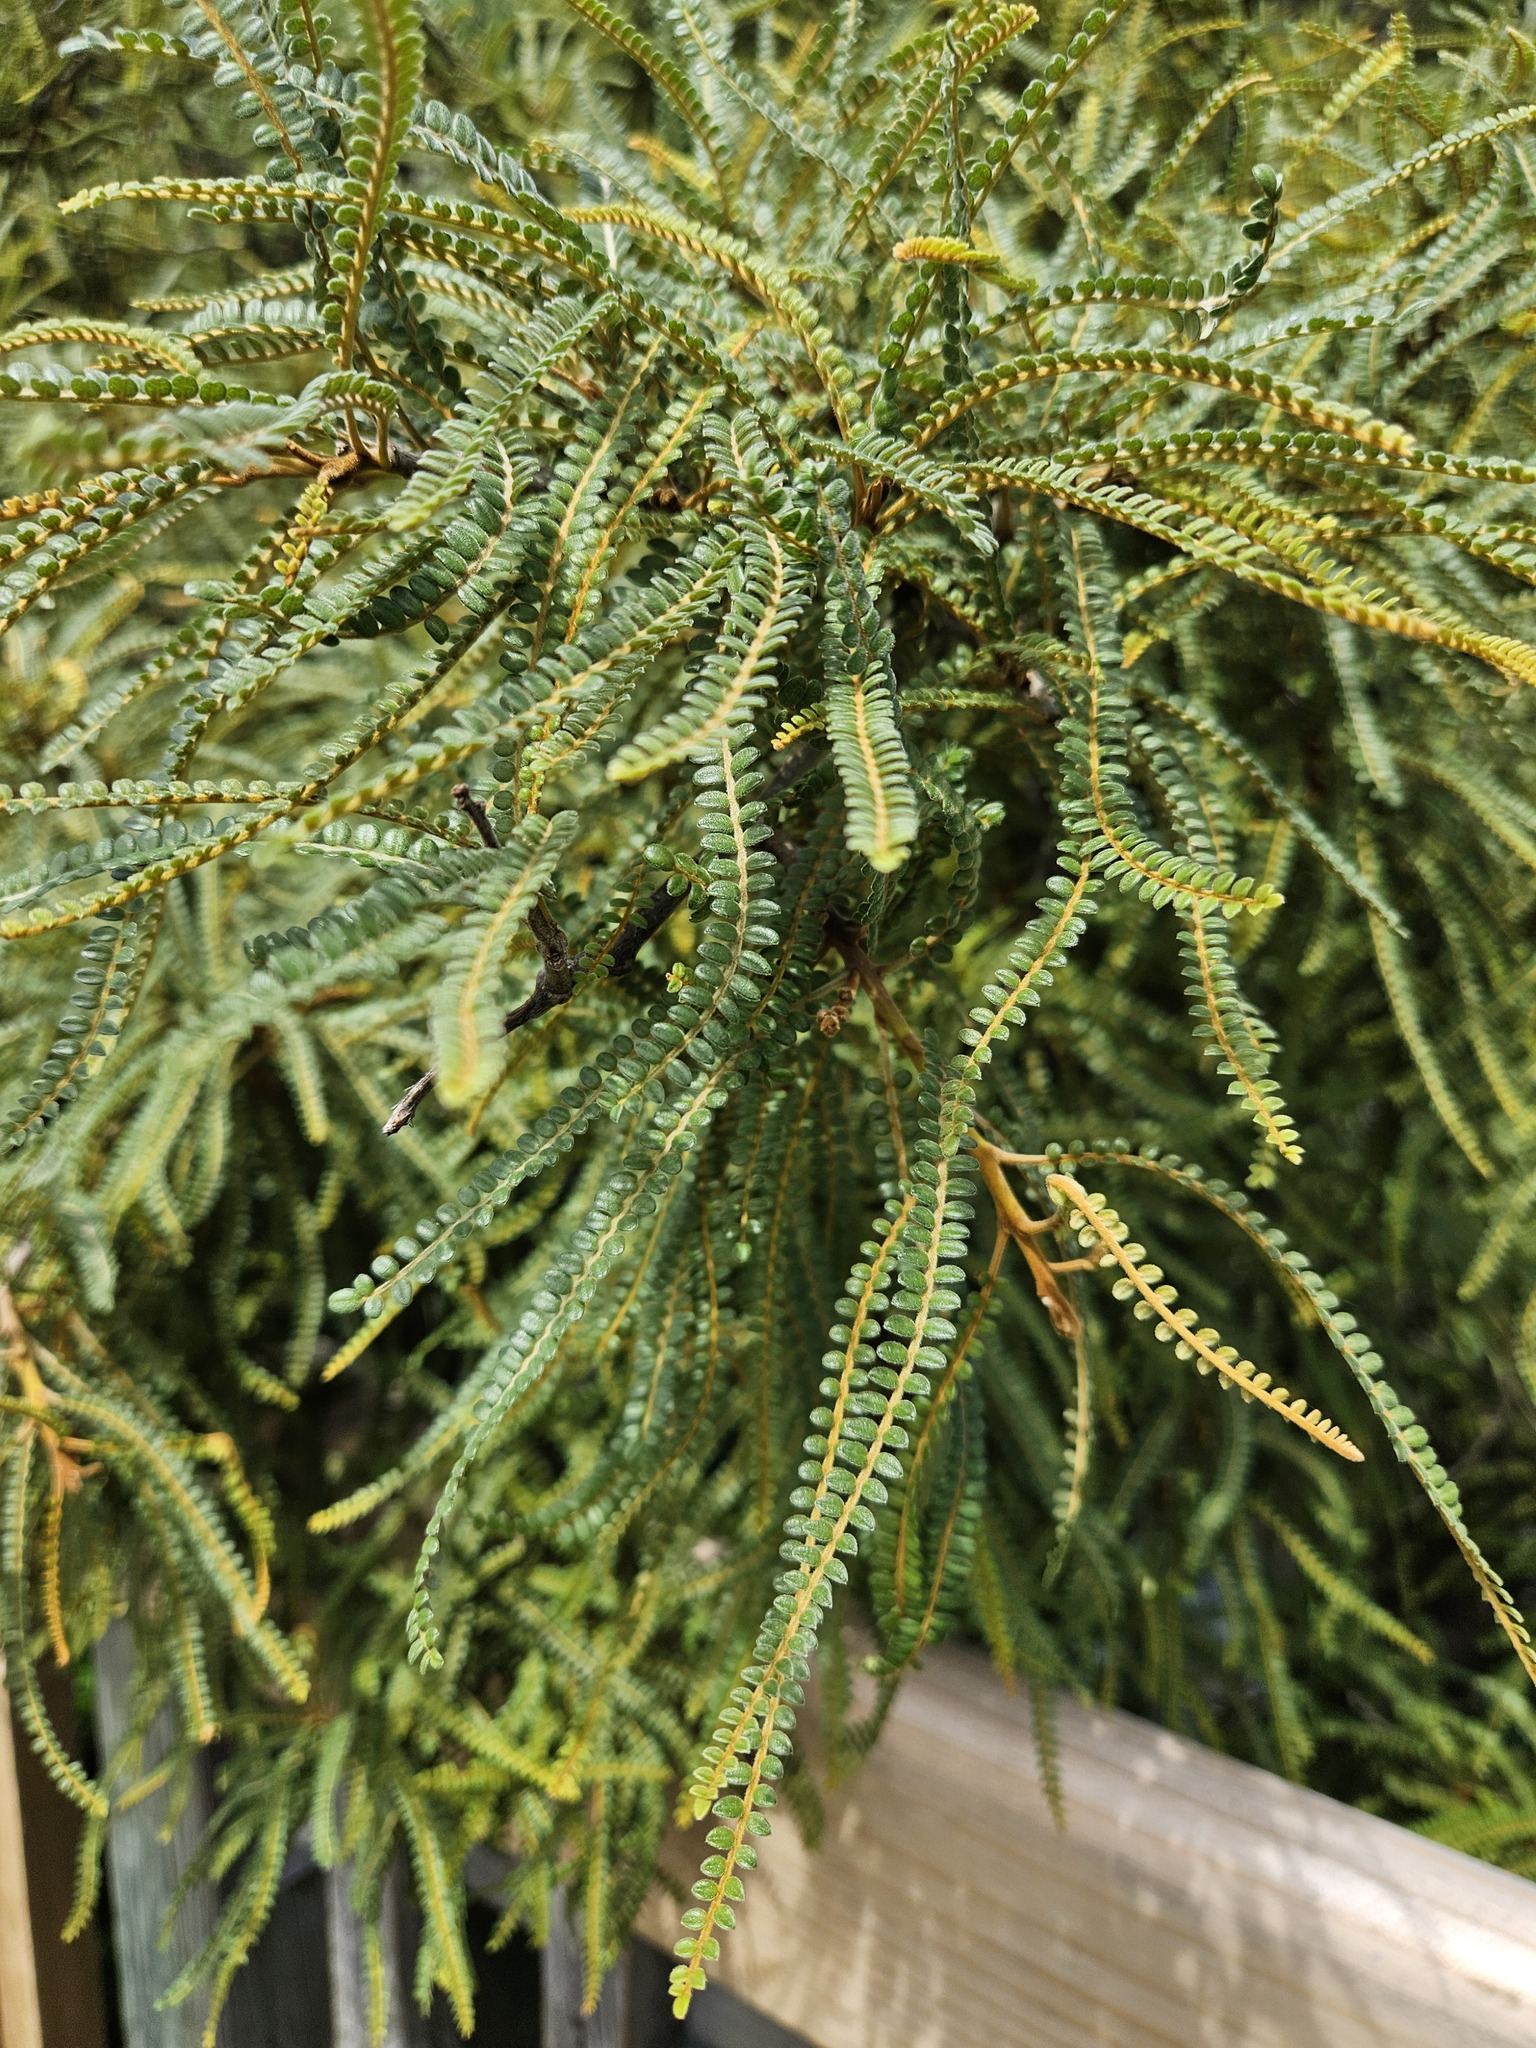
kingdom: Plantae
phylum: Tracheophyta
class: Magnoliopsida
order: Fabales
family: Fabaceae
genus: Sophora
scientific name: Sophora fulvida
